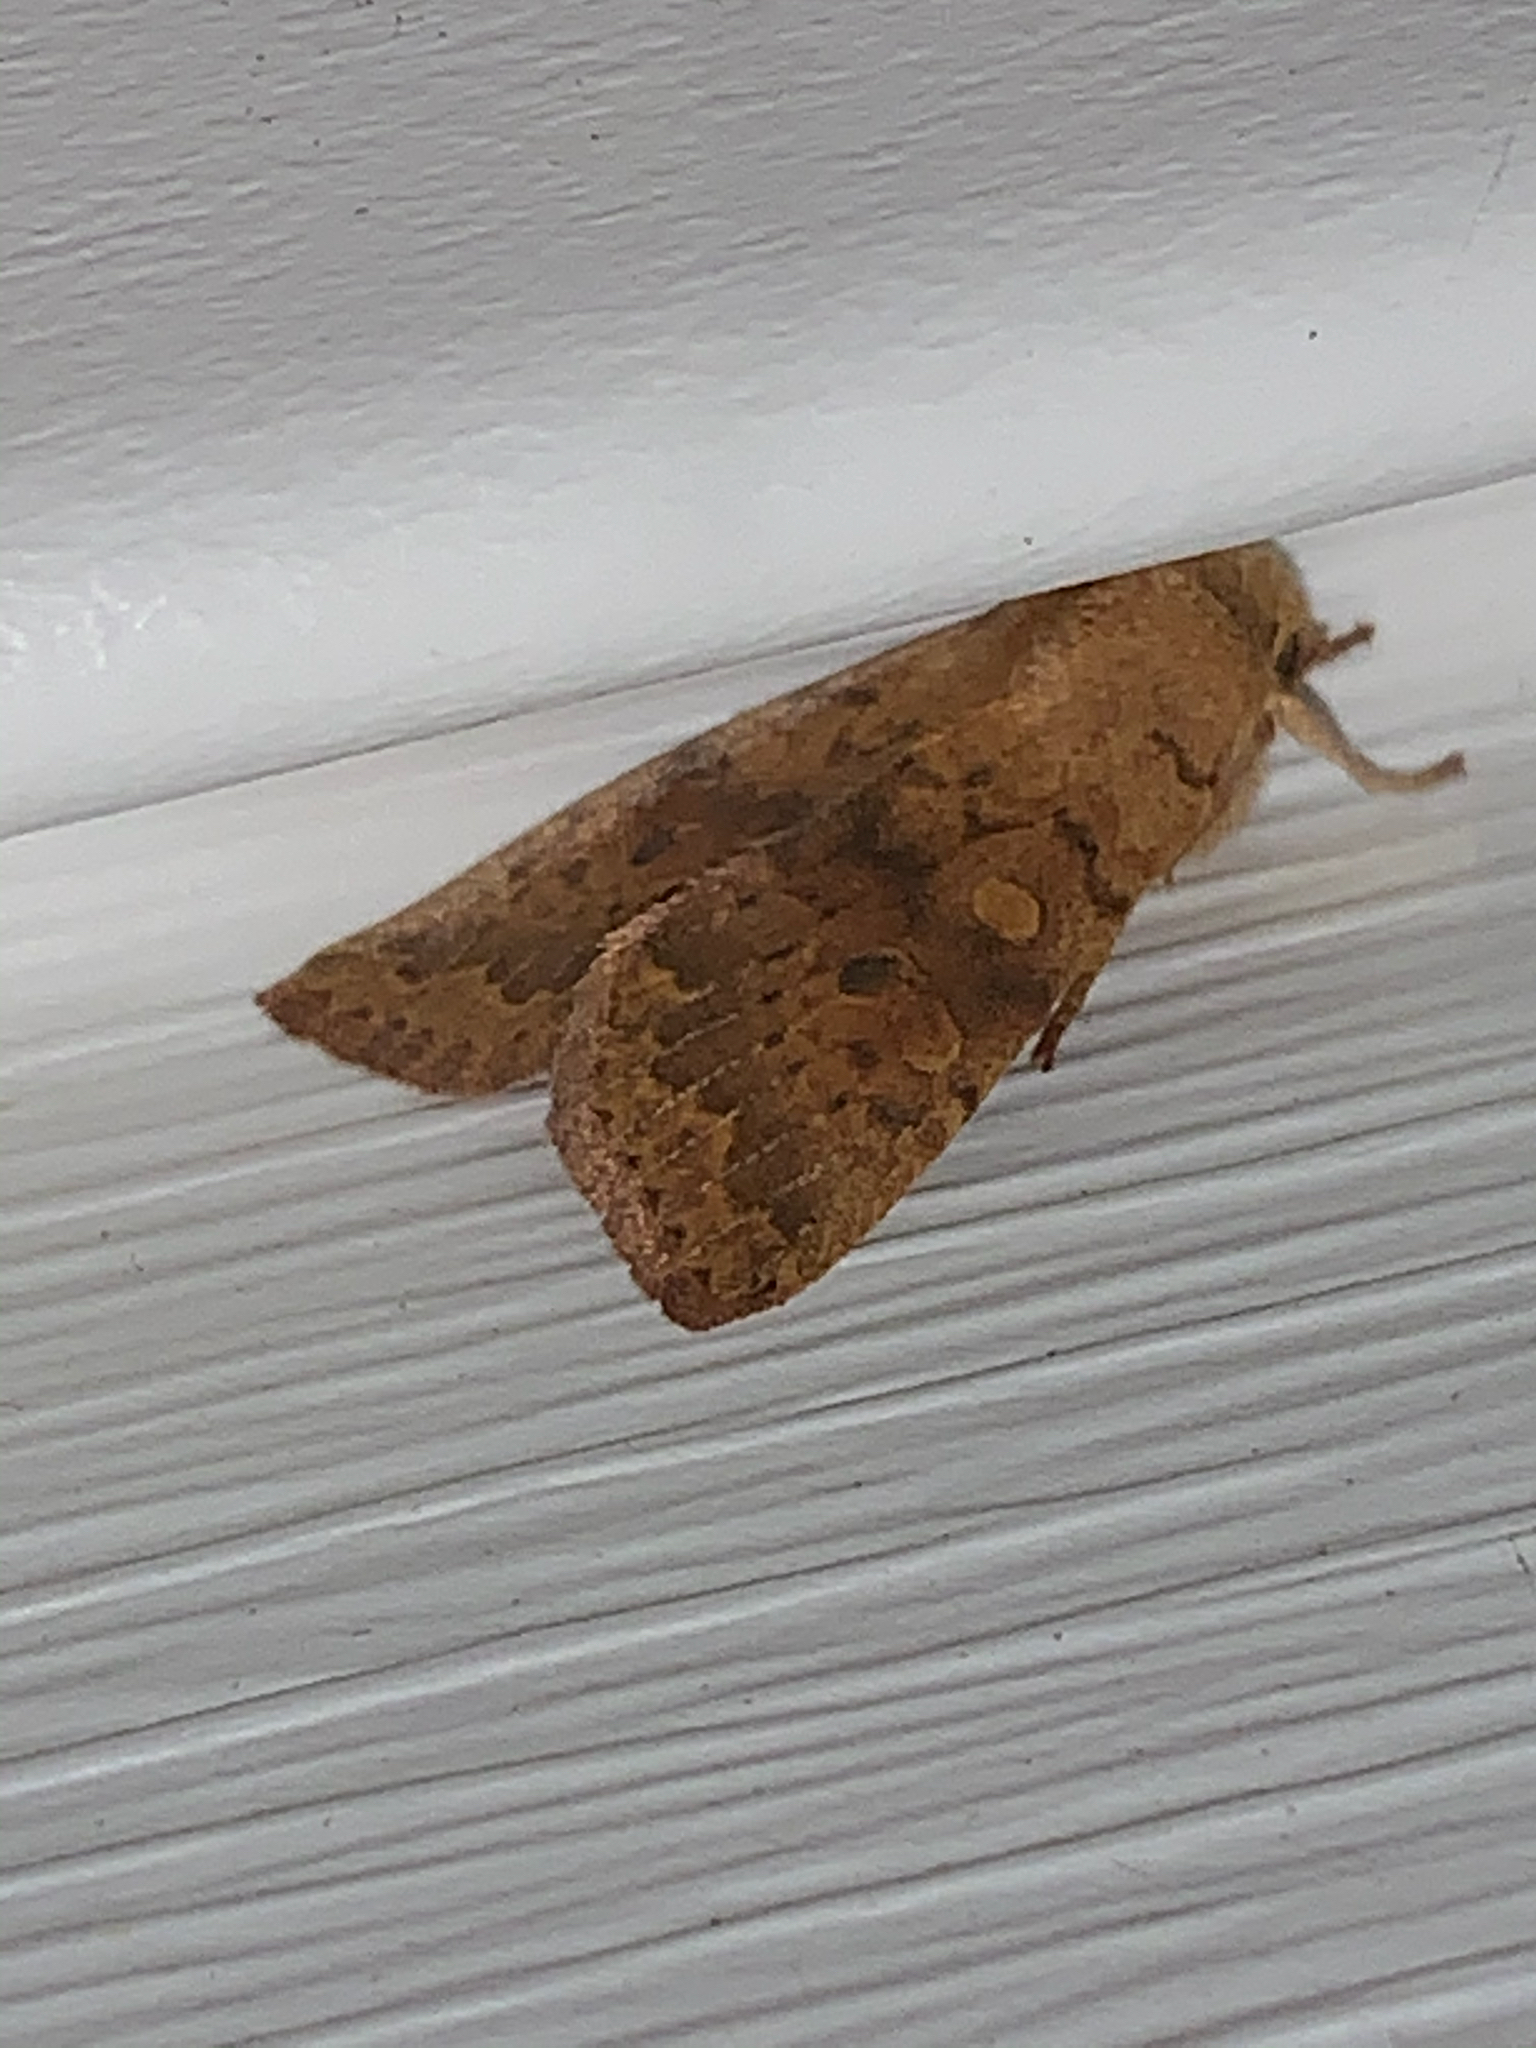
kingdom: Animalia
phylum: Arthropoda
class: Insecta
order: Lepidoptera
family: Noctuidae
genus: Agrochola
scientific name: Agrochola bicolorago
